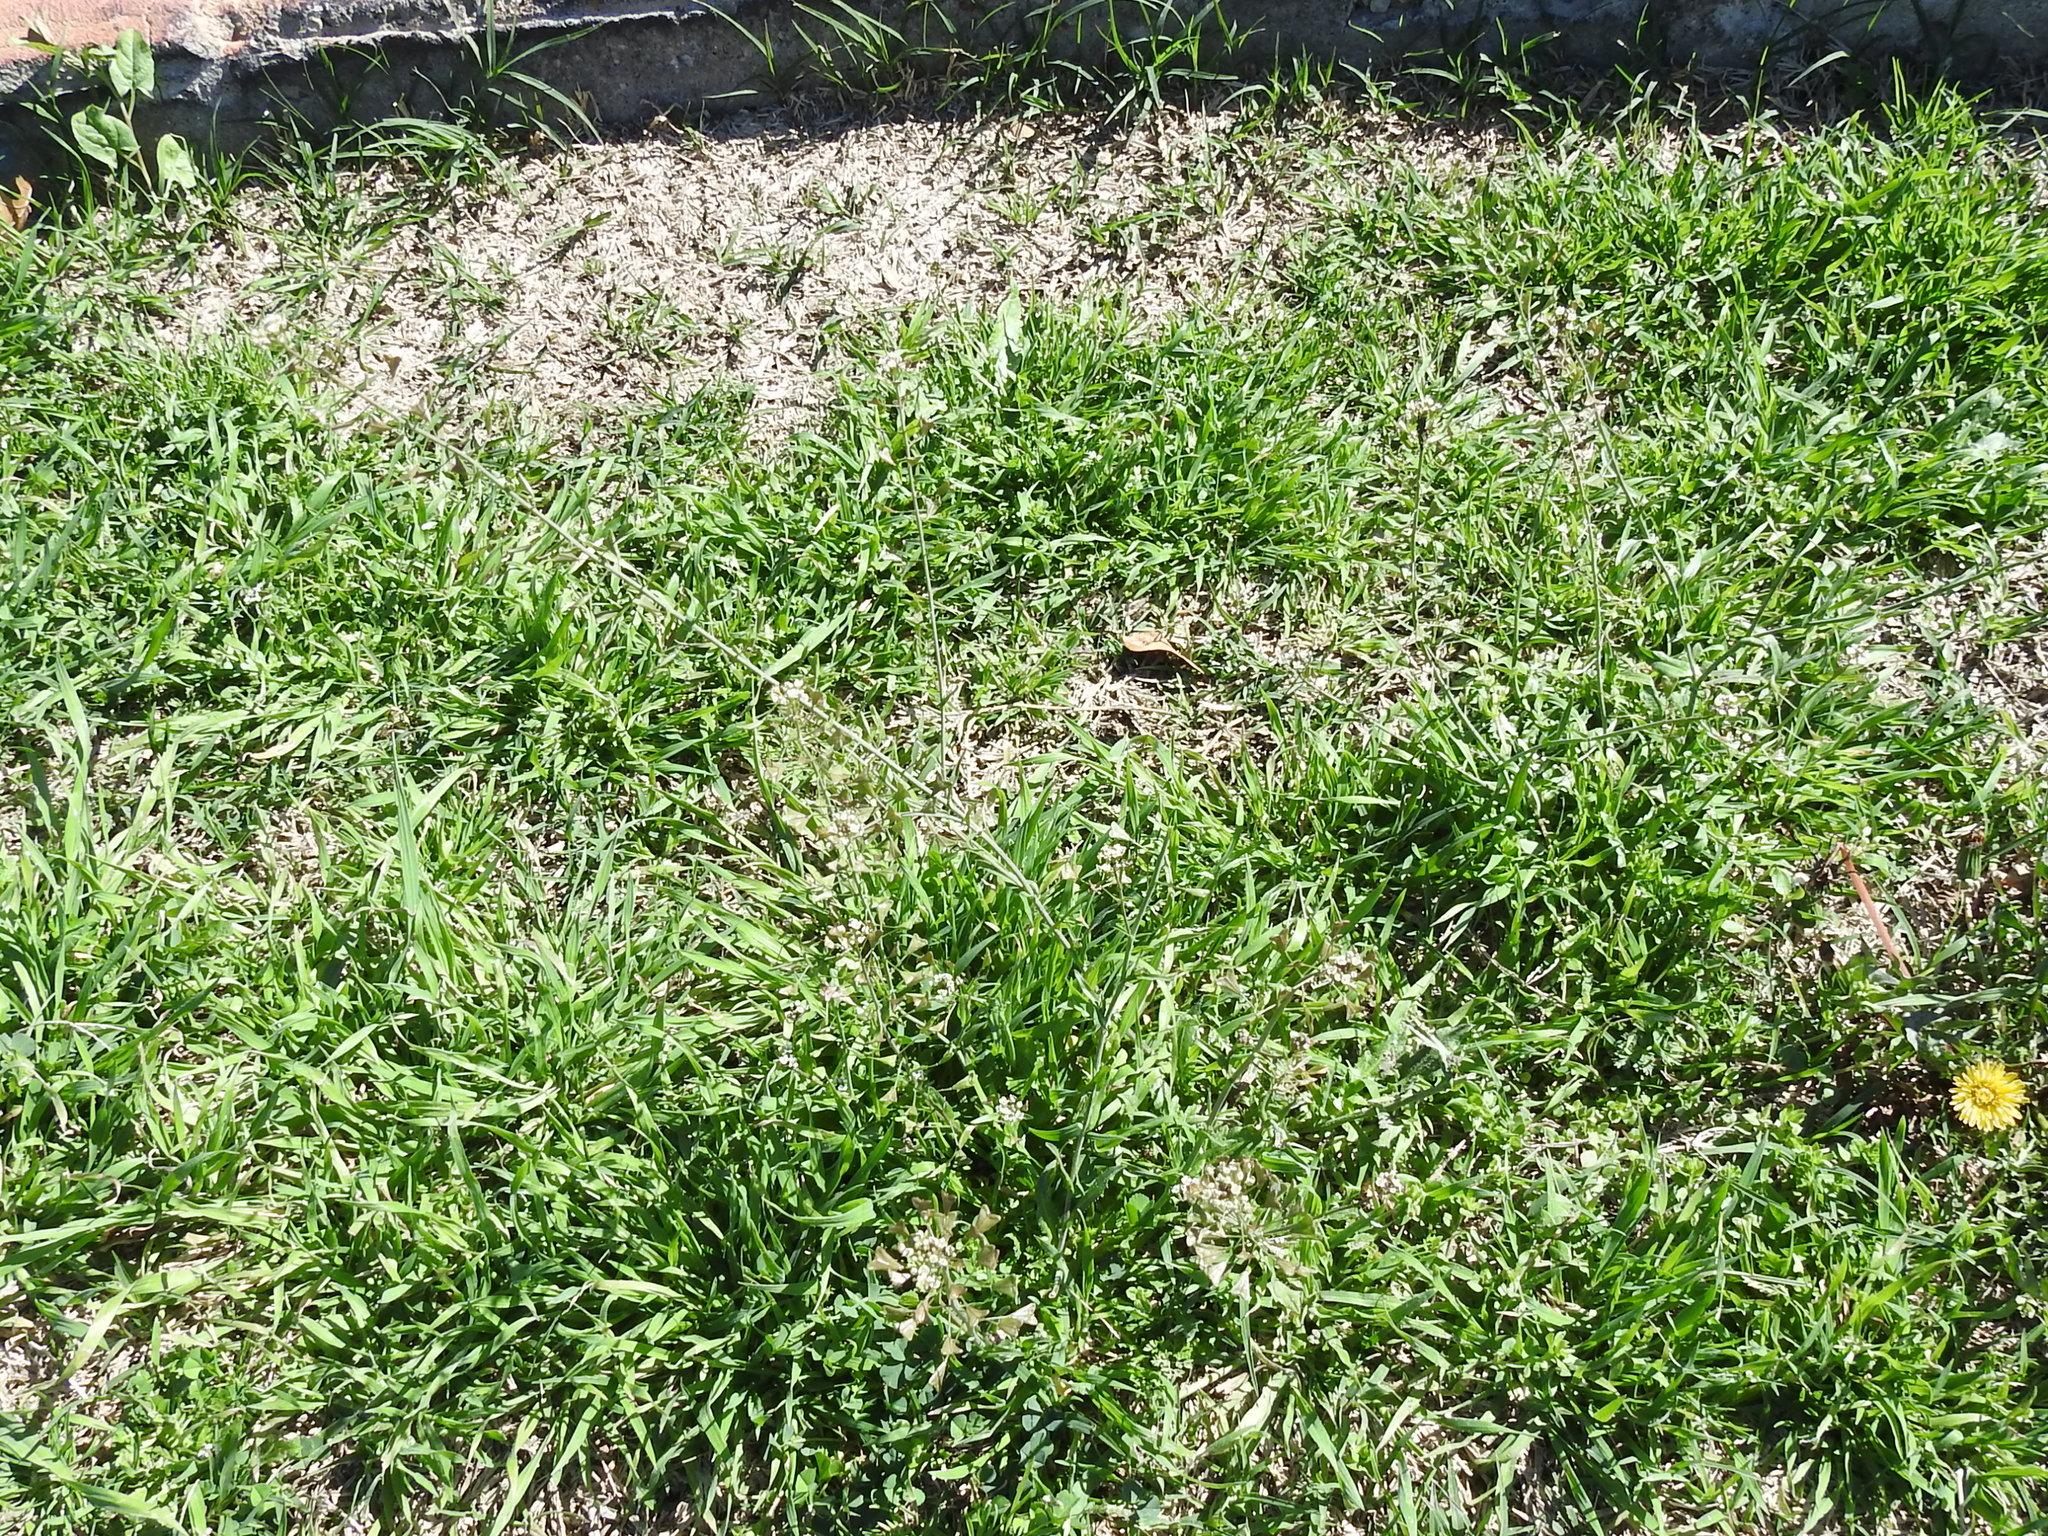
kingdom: Plantae
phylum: Tracheophyta
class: Magnoliopsida
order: Brassicales
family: Brassicaceae
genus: Capsella
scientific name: Capsella bursa-pastoris
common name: Shepherd's purse
